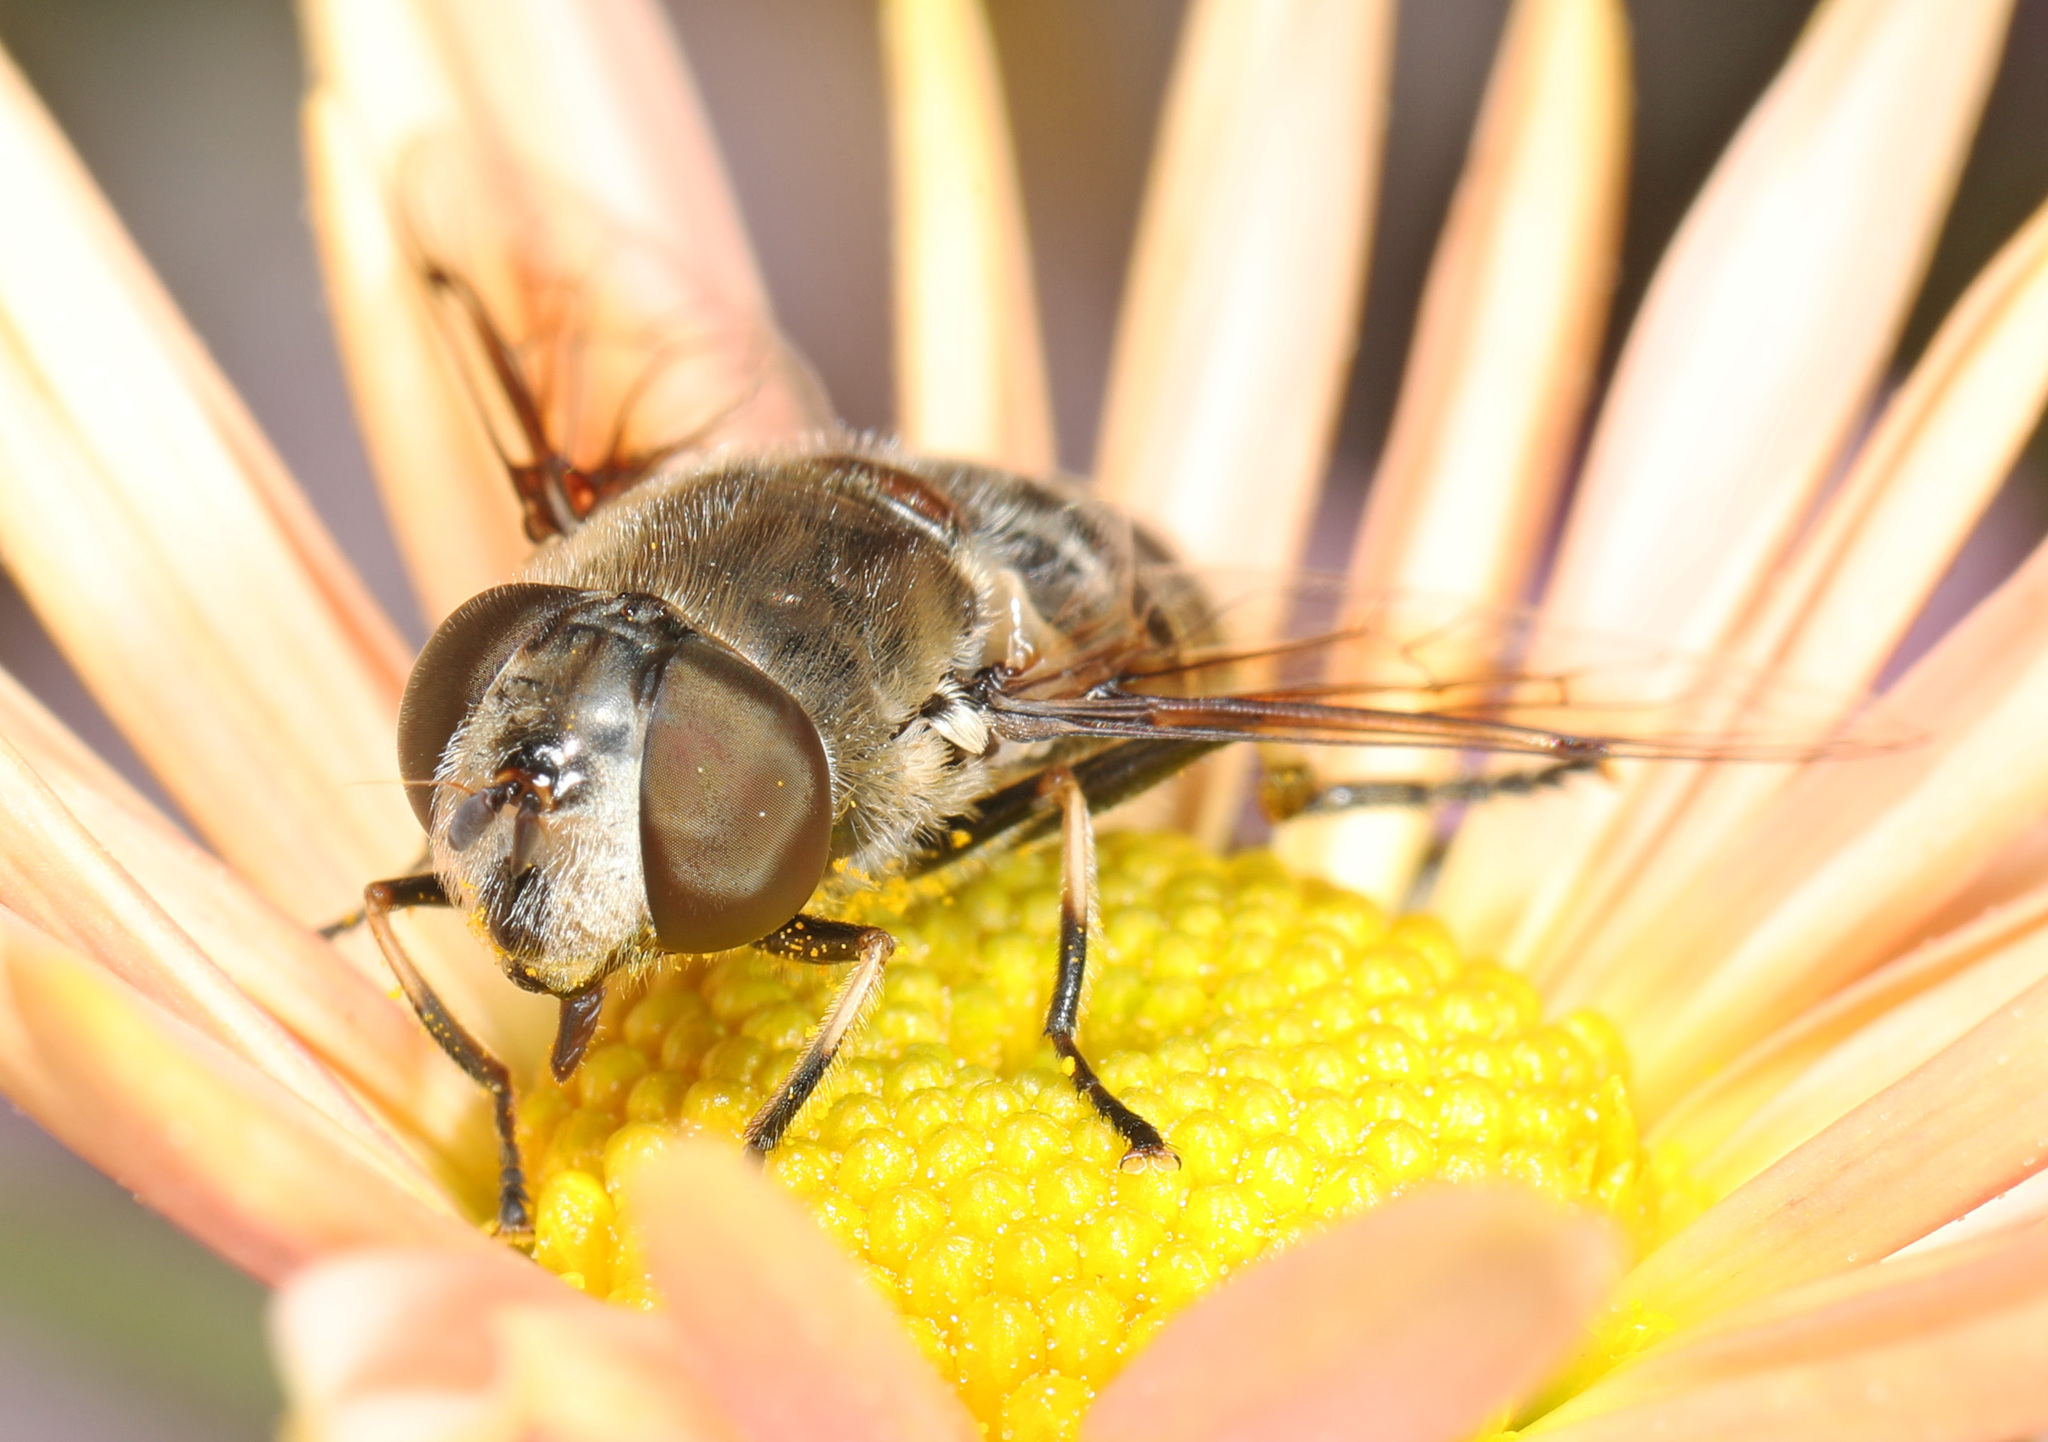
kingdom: Animalia
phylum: Arthropoda
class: Insecta
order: Diptera
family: Syrphidae
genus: Eristalis
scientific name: Eristalis dimidiata
